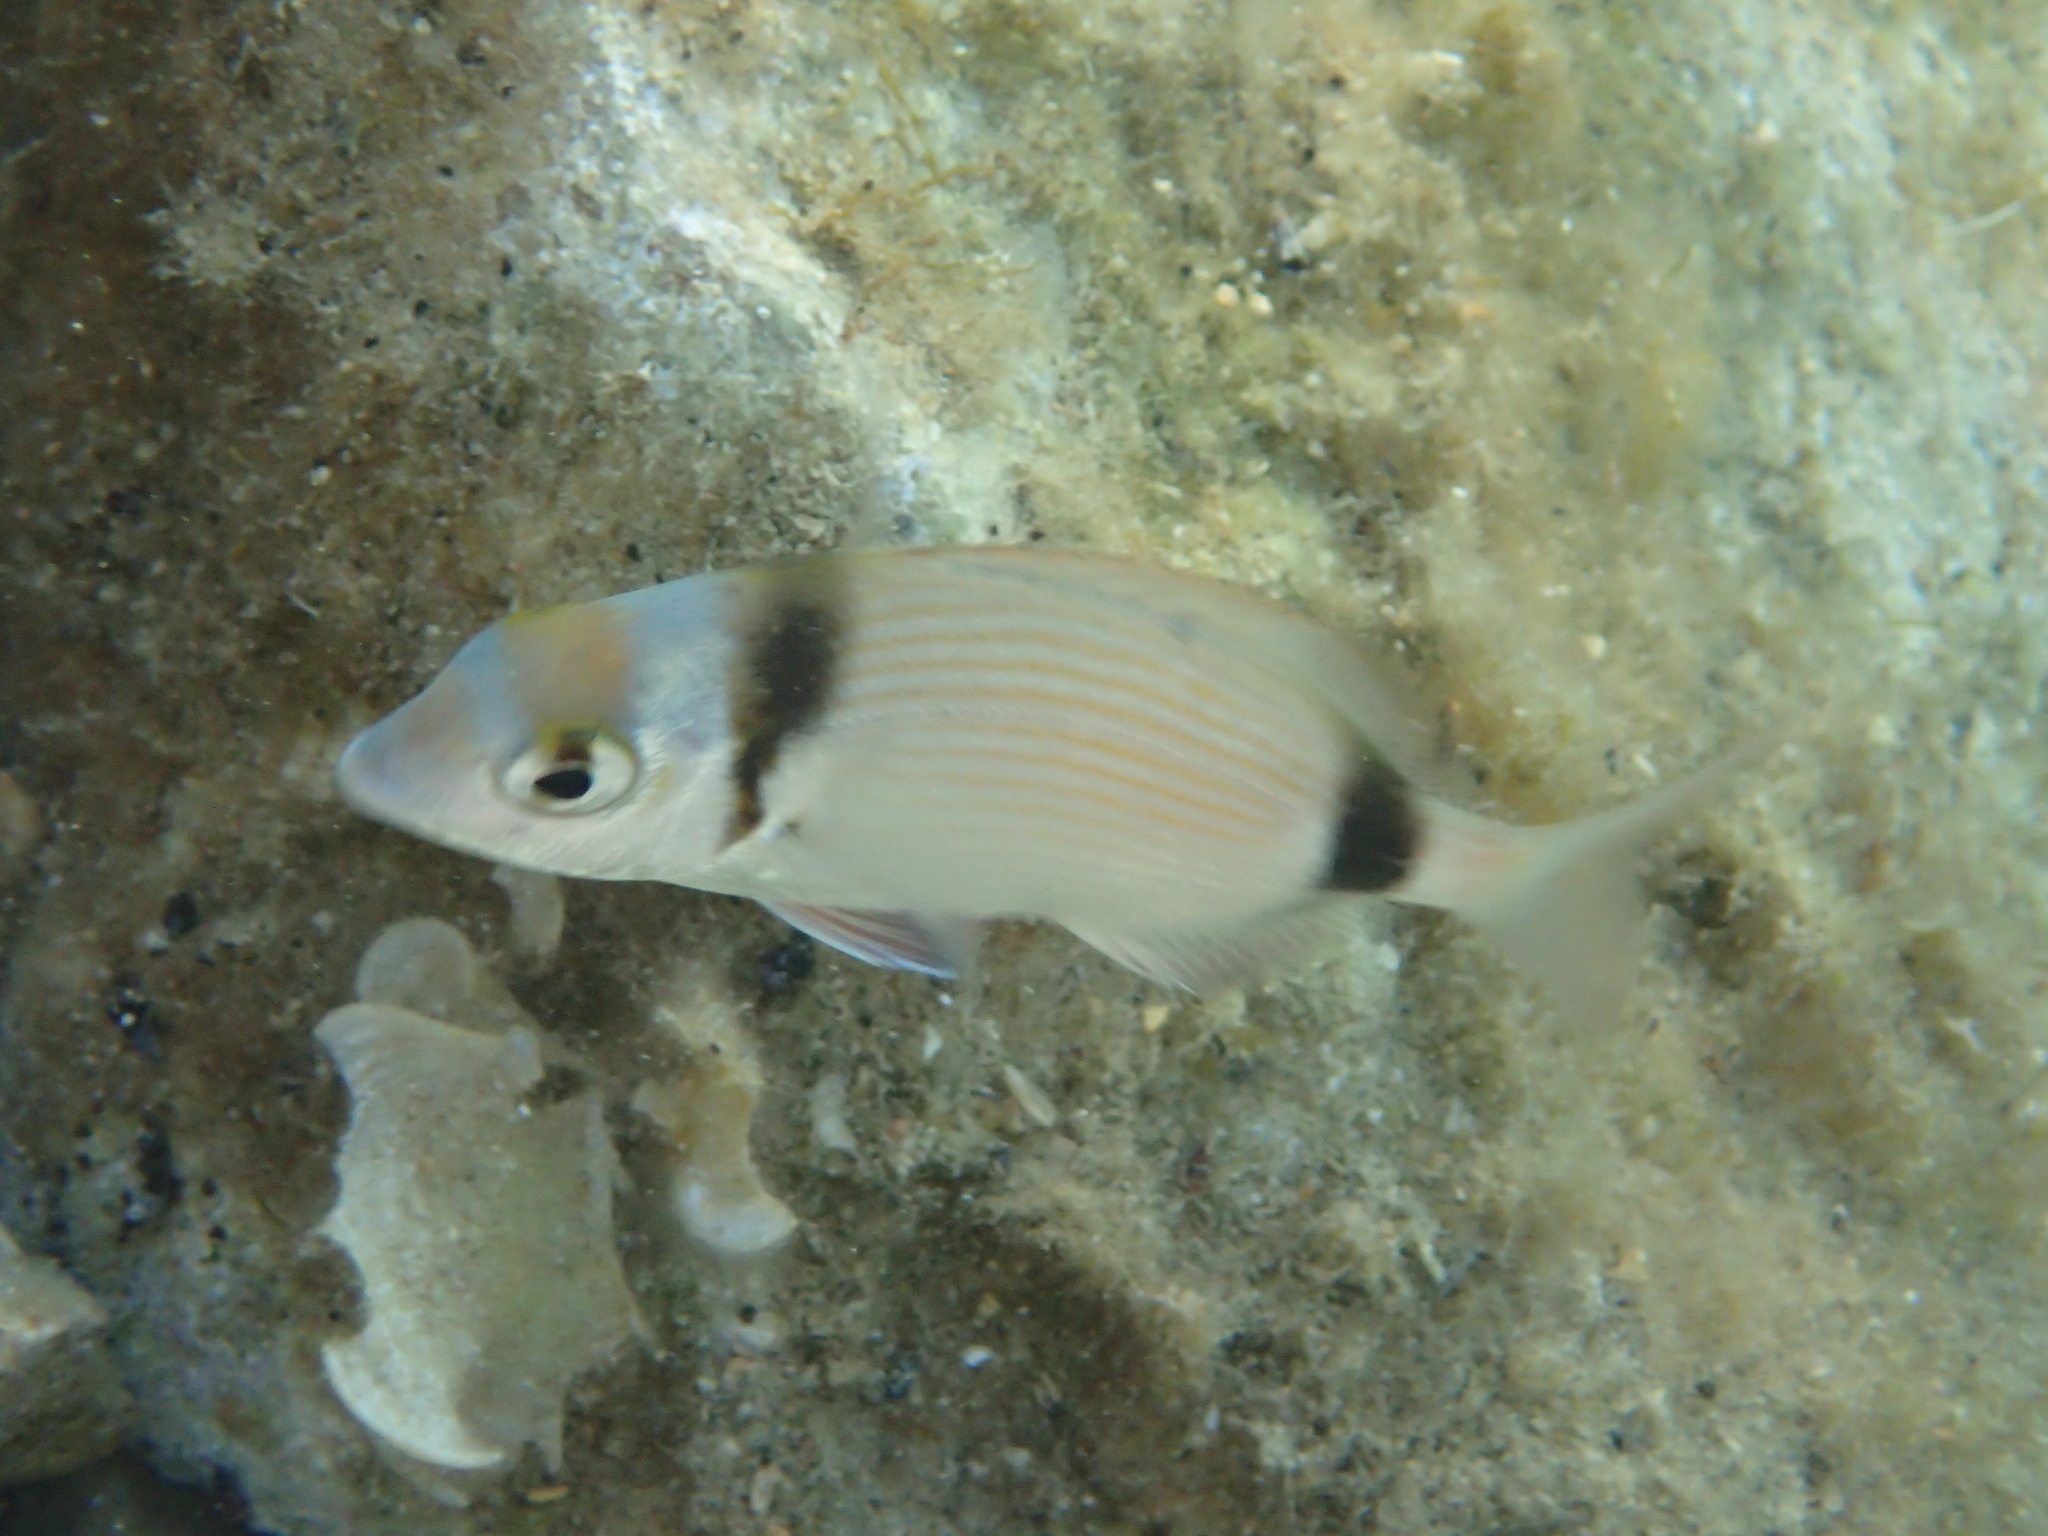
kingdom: Animalia
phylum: Chordata
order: Perciformes
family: Sparidae
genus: Diplodus
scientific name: Diplodus vulgaris
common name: Common two-banded seabream
